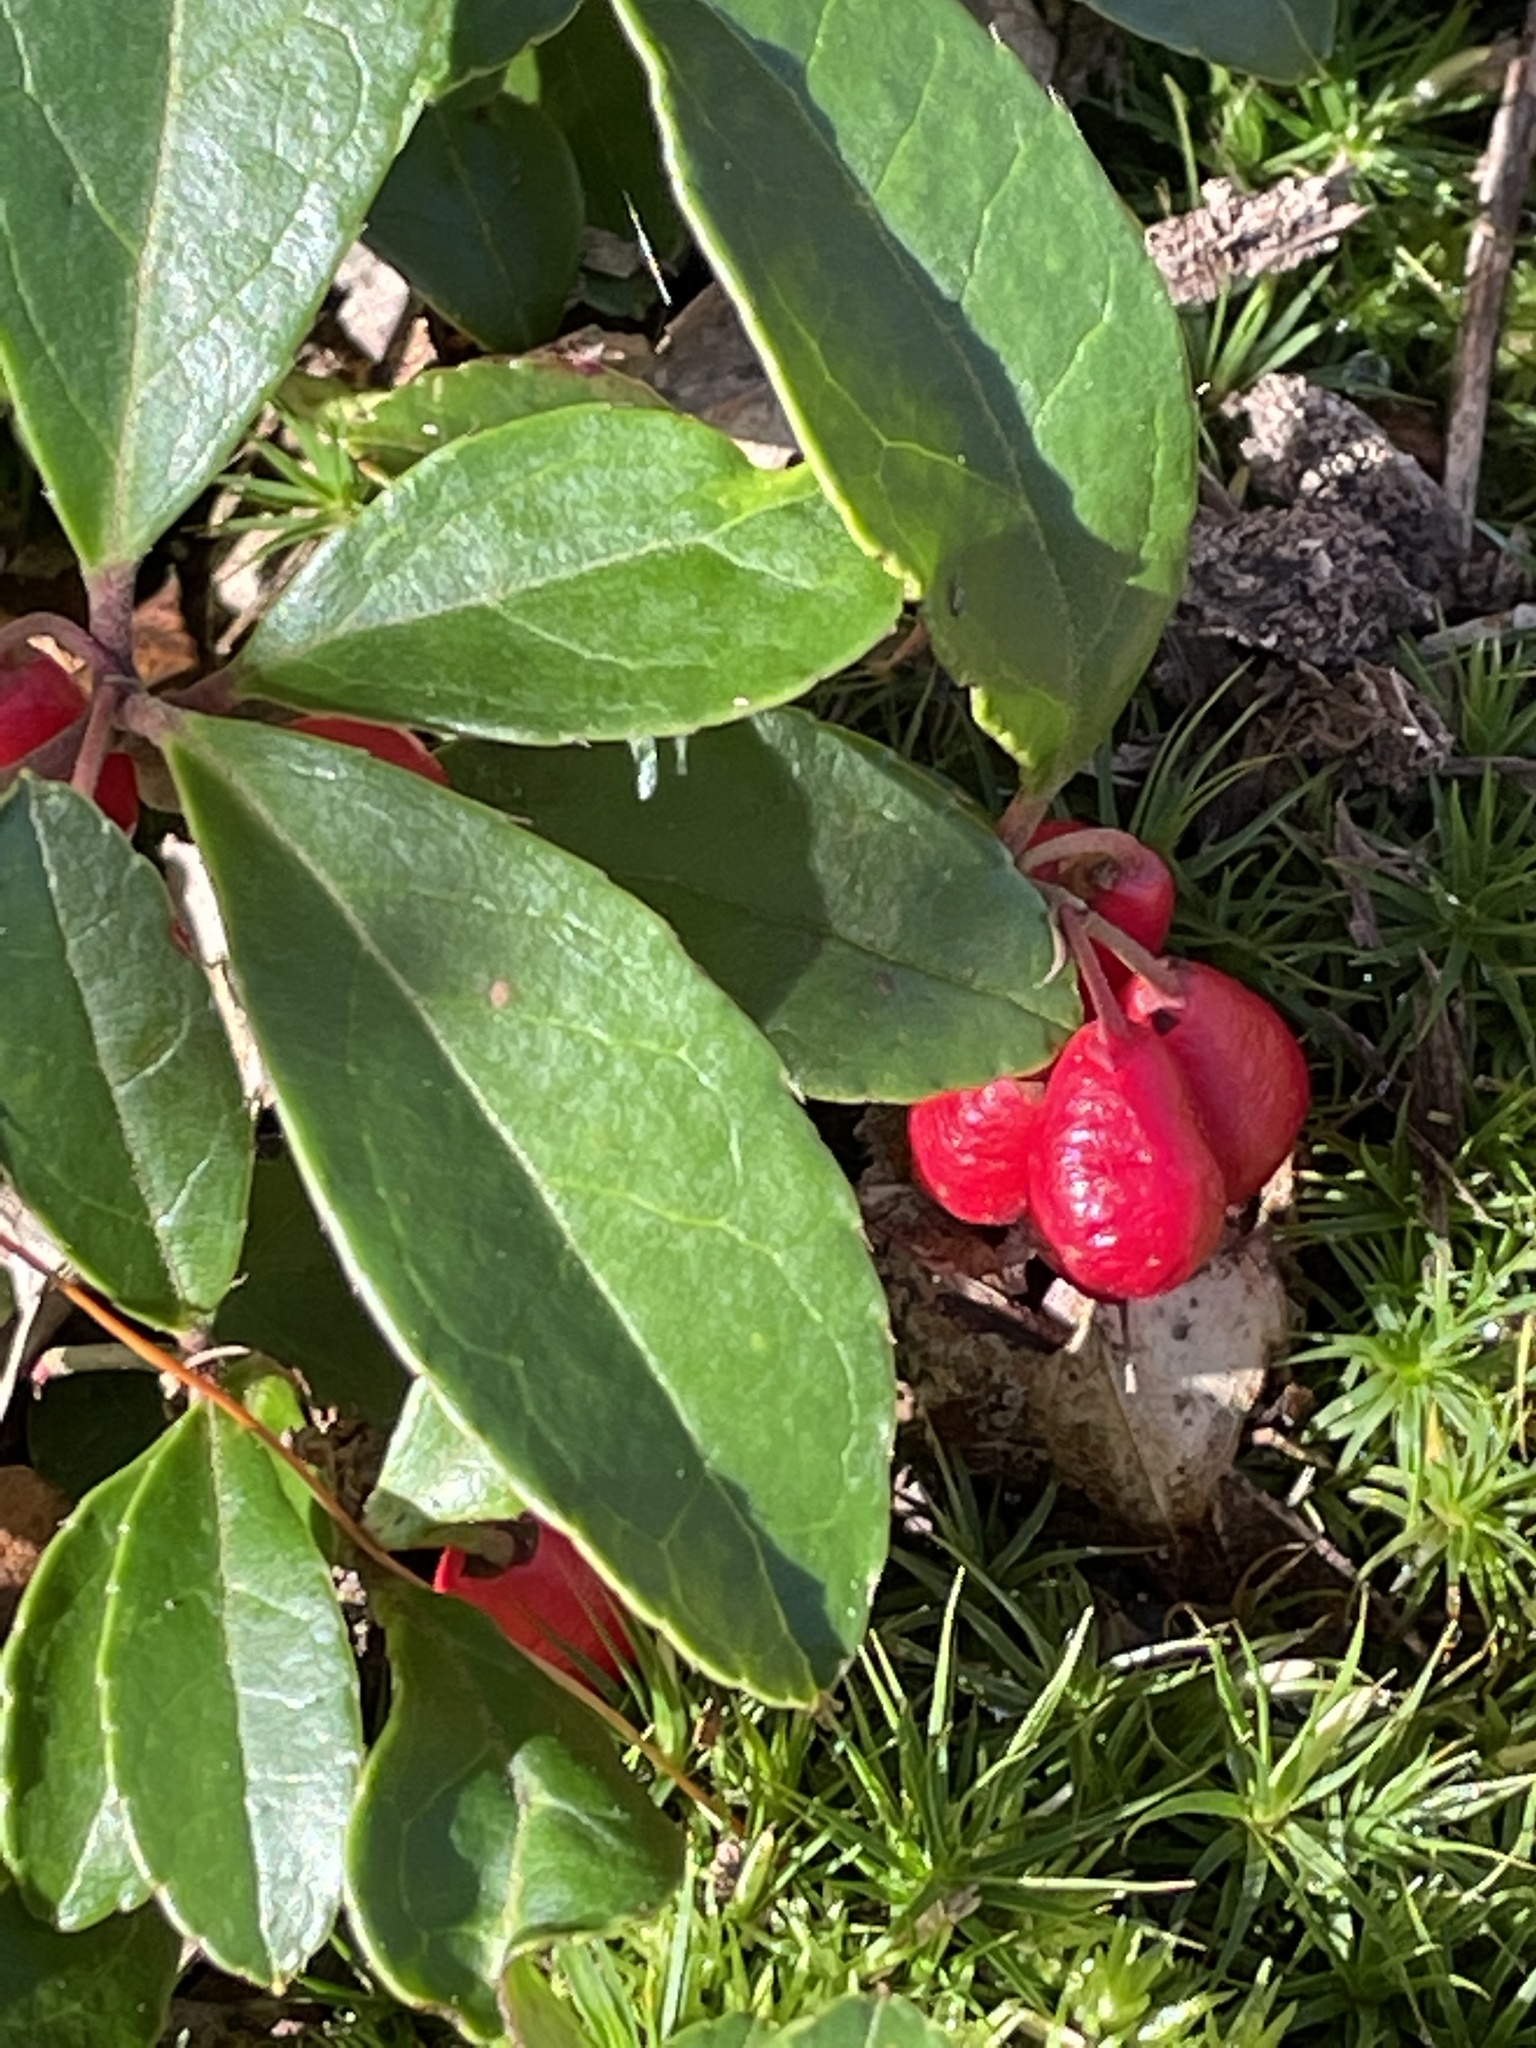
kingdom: Plantae
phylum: Tracheophyta
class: Magnoliopsida
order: Ericales
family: Ericaceae
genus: Gaultheria
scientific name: Gaultheria procumbens
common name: Checkerberry
